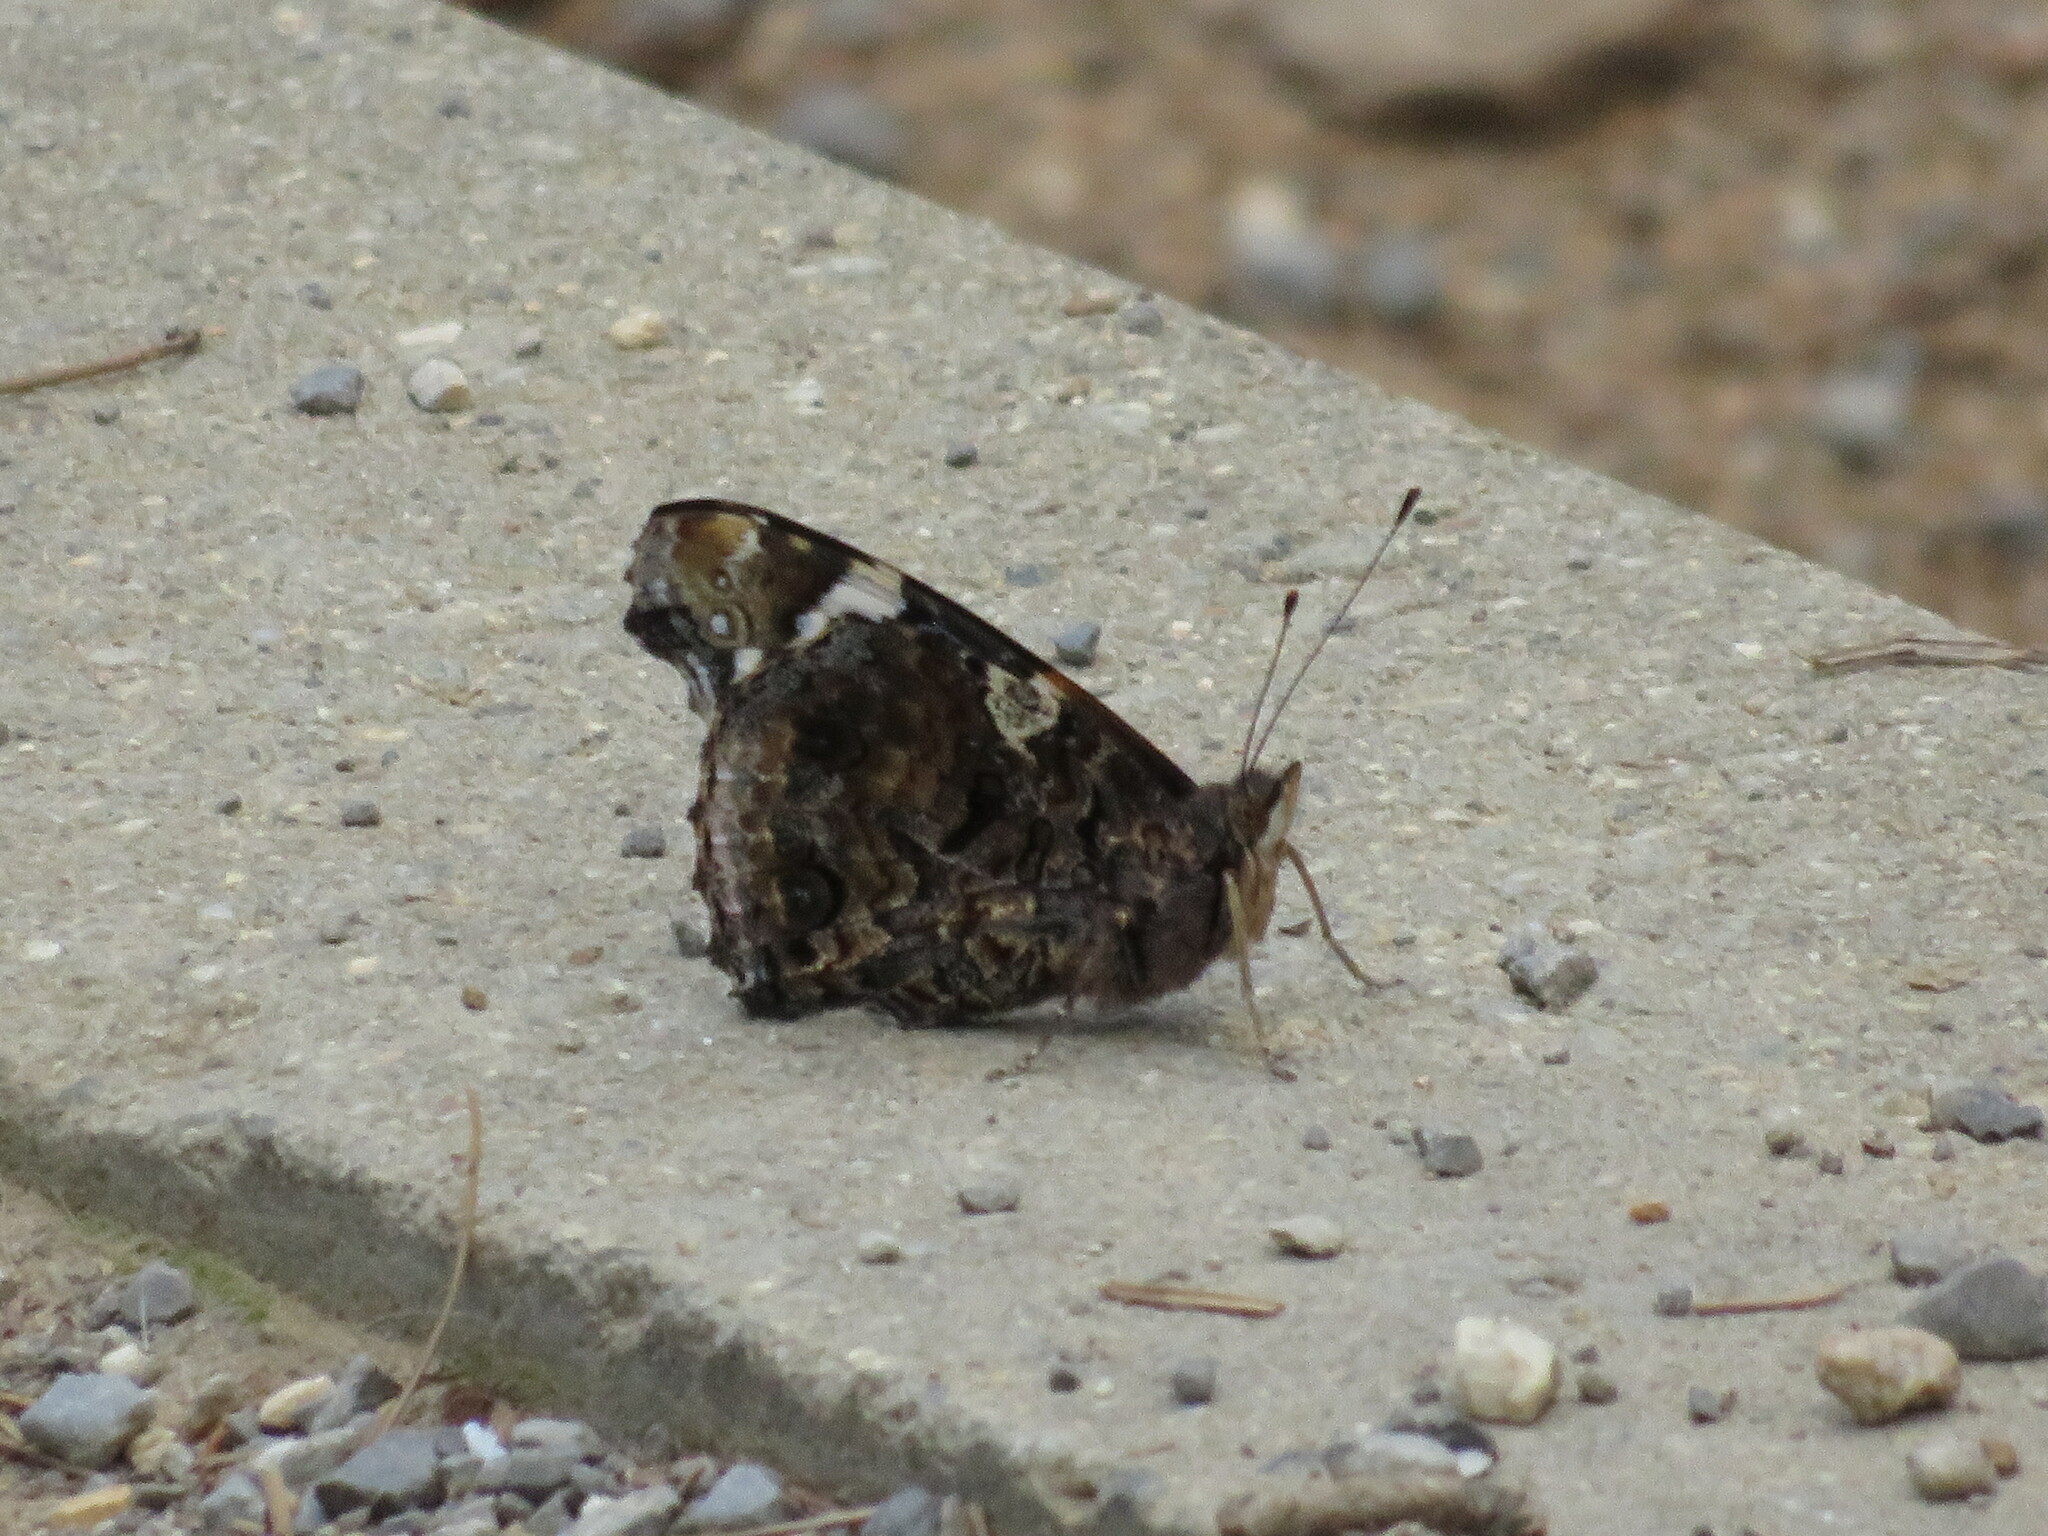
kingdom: Animalia
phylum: Arthropoda
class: Insecta
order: Lepidoptera
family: Nymphalidae
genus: Vanessa
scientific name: Vanessa atalanta
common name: Red admiral
